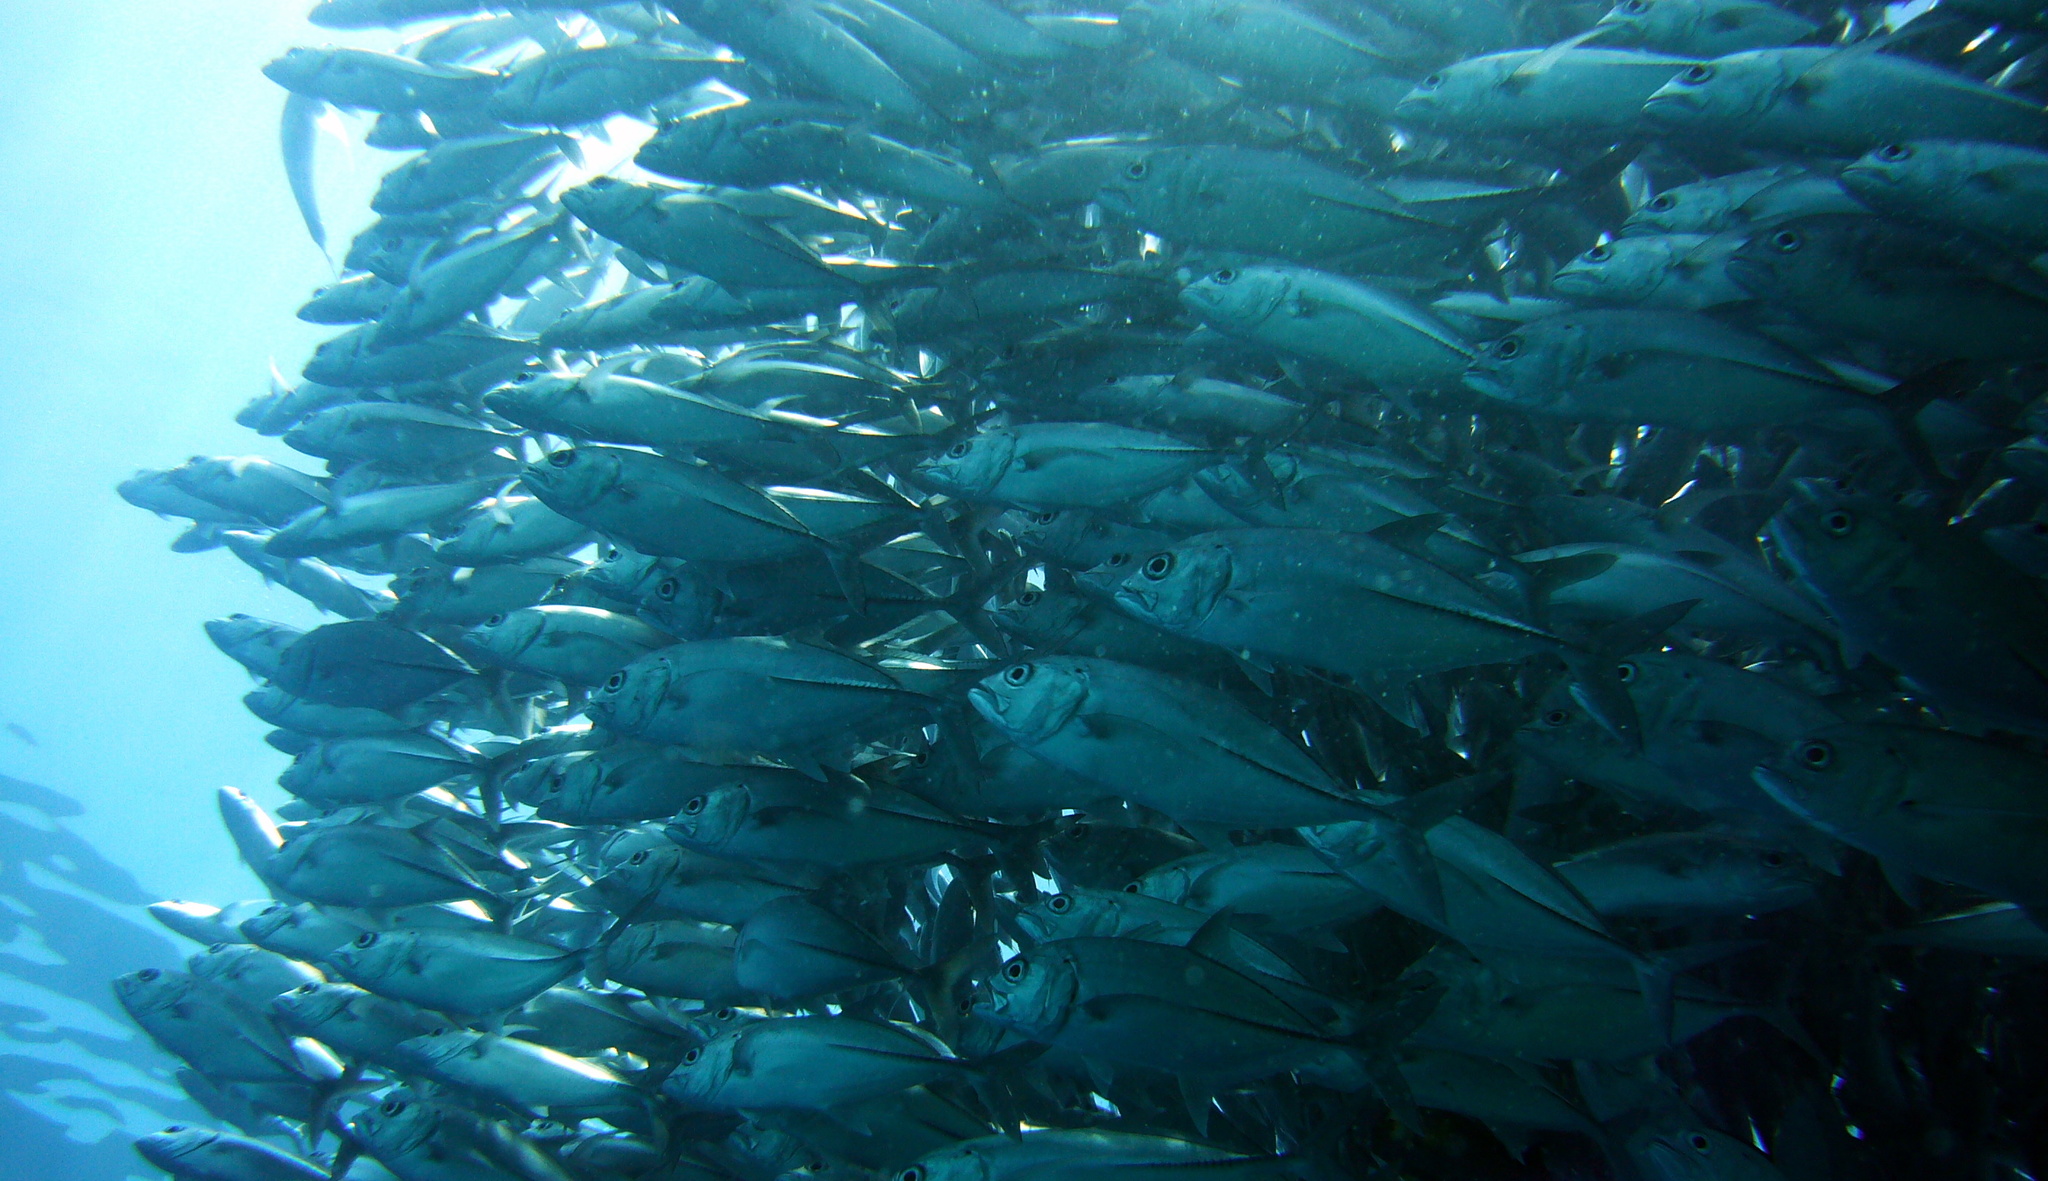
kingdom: Animalia
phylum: Chordata
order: Perciformes
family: Carangidae
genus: Caranx
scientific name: Caranx sexfasciatus
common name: Bigeye trevally
